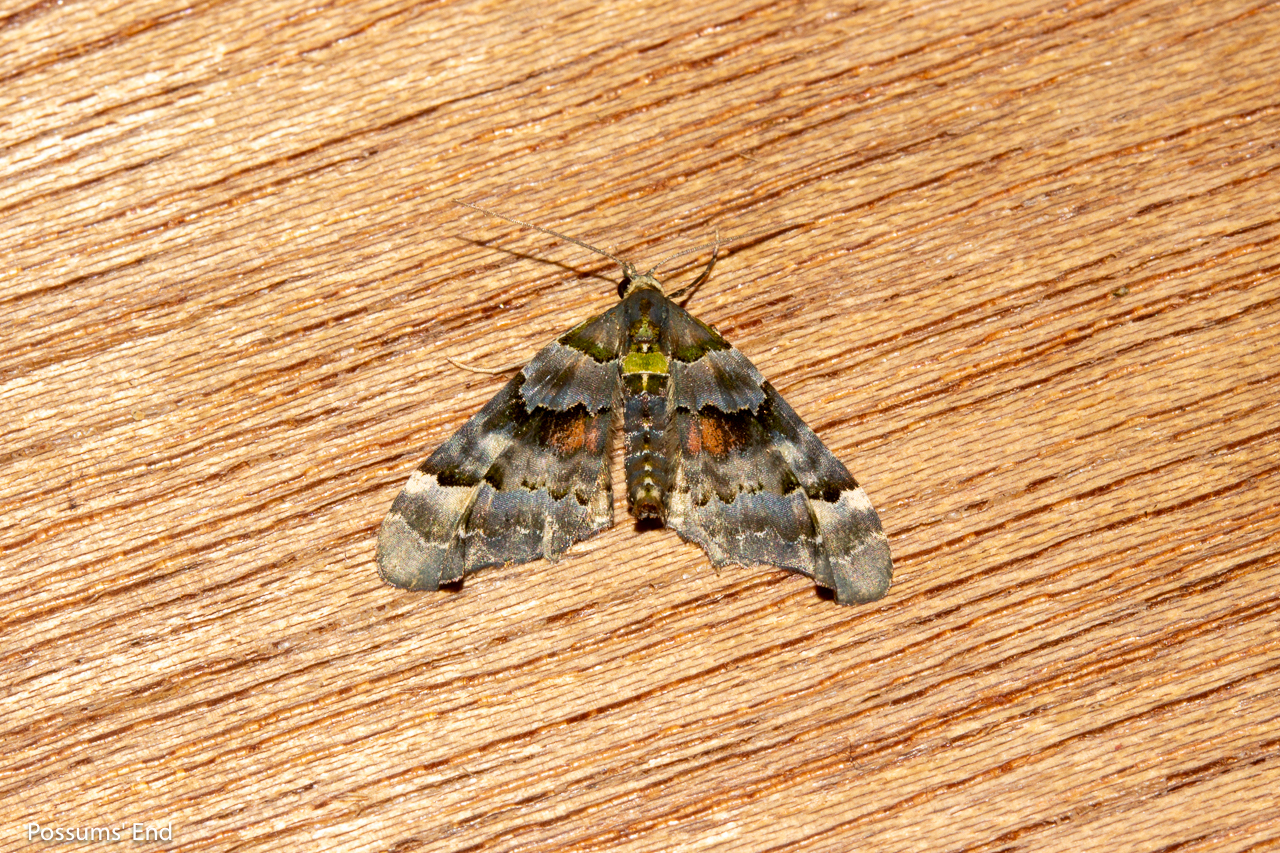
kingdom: Animalia
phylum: Arthropoda
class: Insecta
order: Lepidoptera
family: Geometridae
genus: Elvia
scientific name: Elvia glaucata
